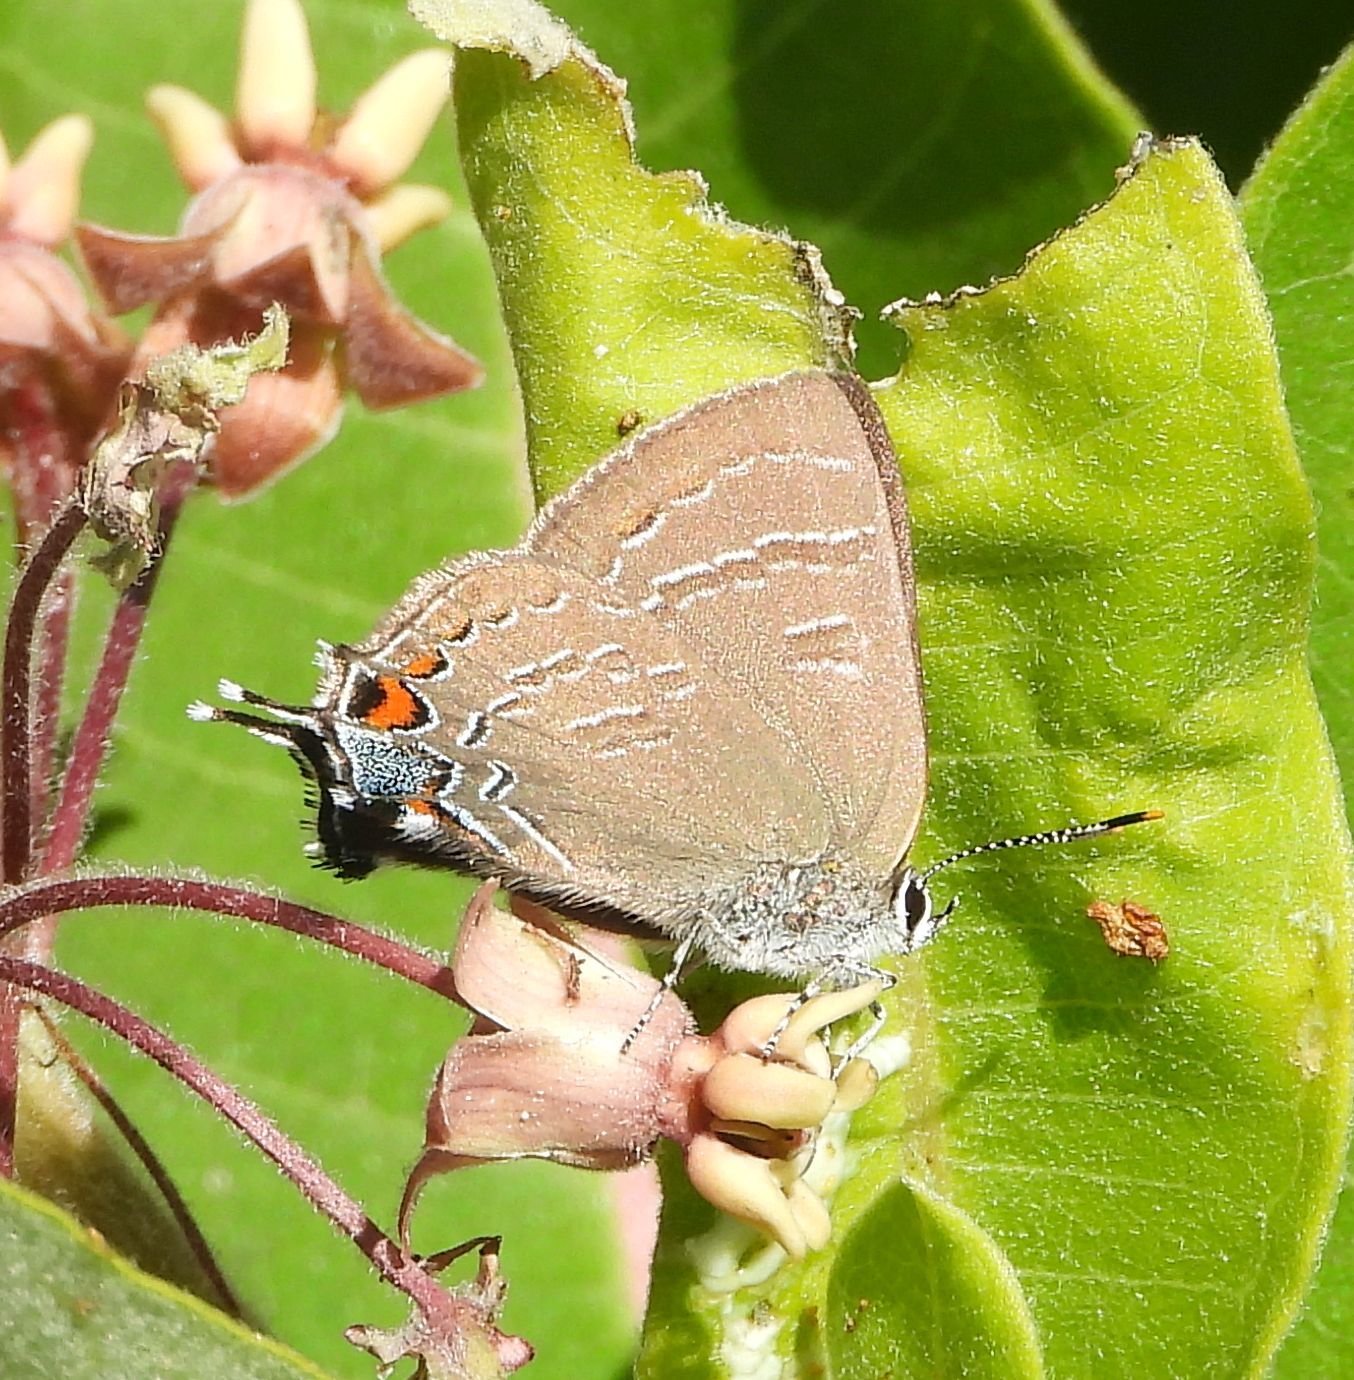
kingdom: Animalia
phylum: Arthropoda
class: Insecta
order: Lepidoptera
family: Lycaenidae
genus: Satyrium
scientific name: Satyrium calanus
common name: Banded hairstreak
